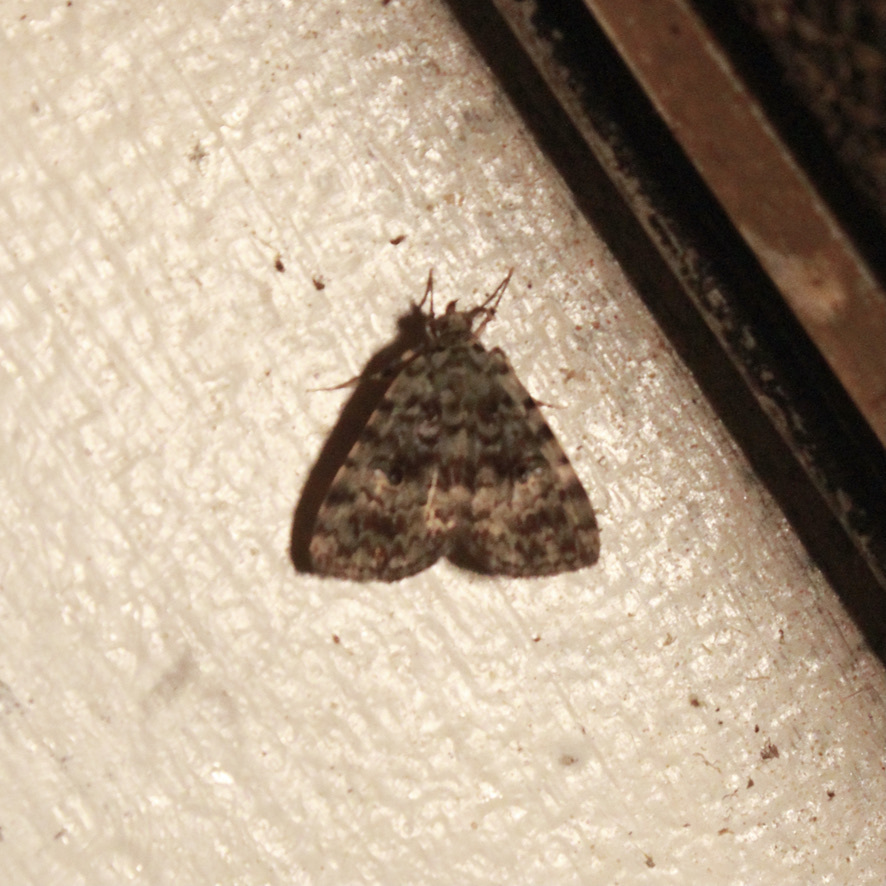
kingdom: Animalia
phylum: Arthropoda
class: Insecta
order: Lepidoptera
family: Erebidae
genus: Glenopteris
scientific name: Glenopteris herbidalis
